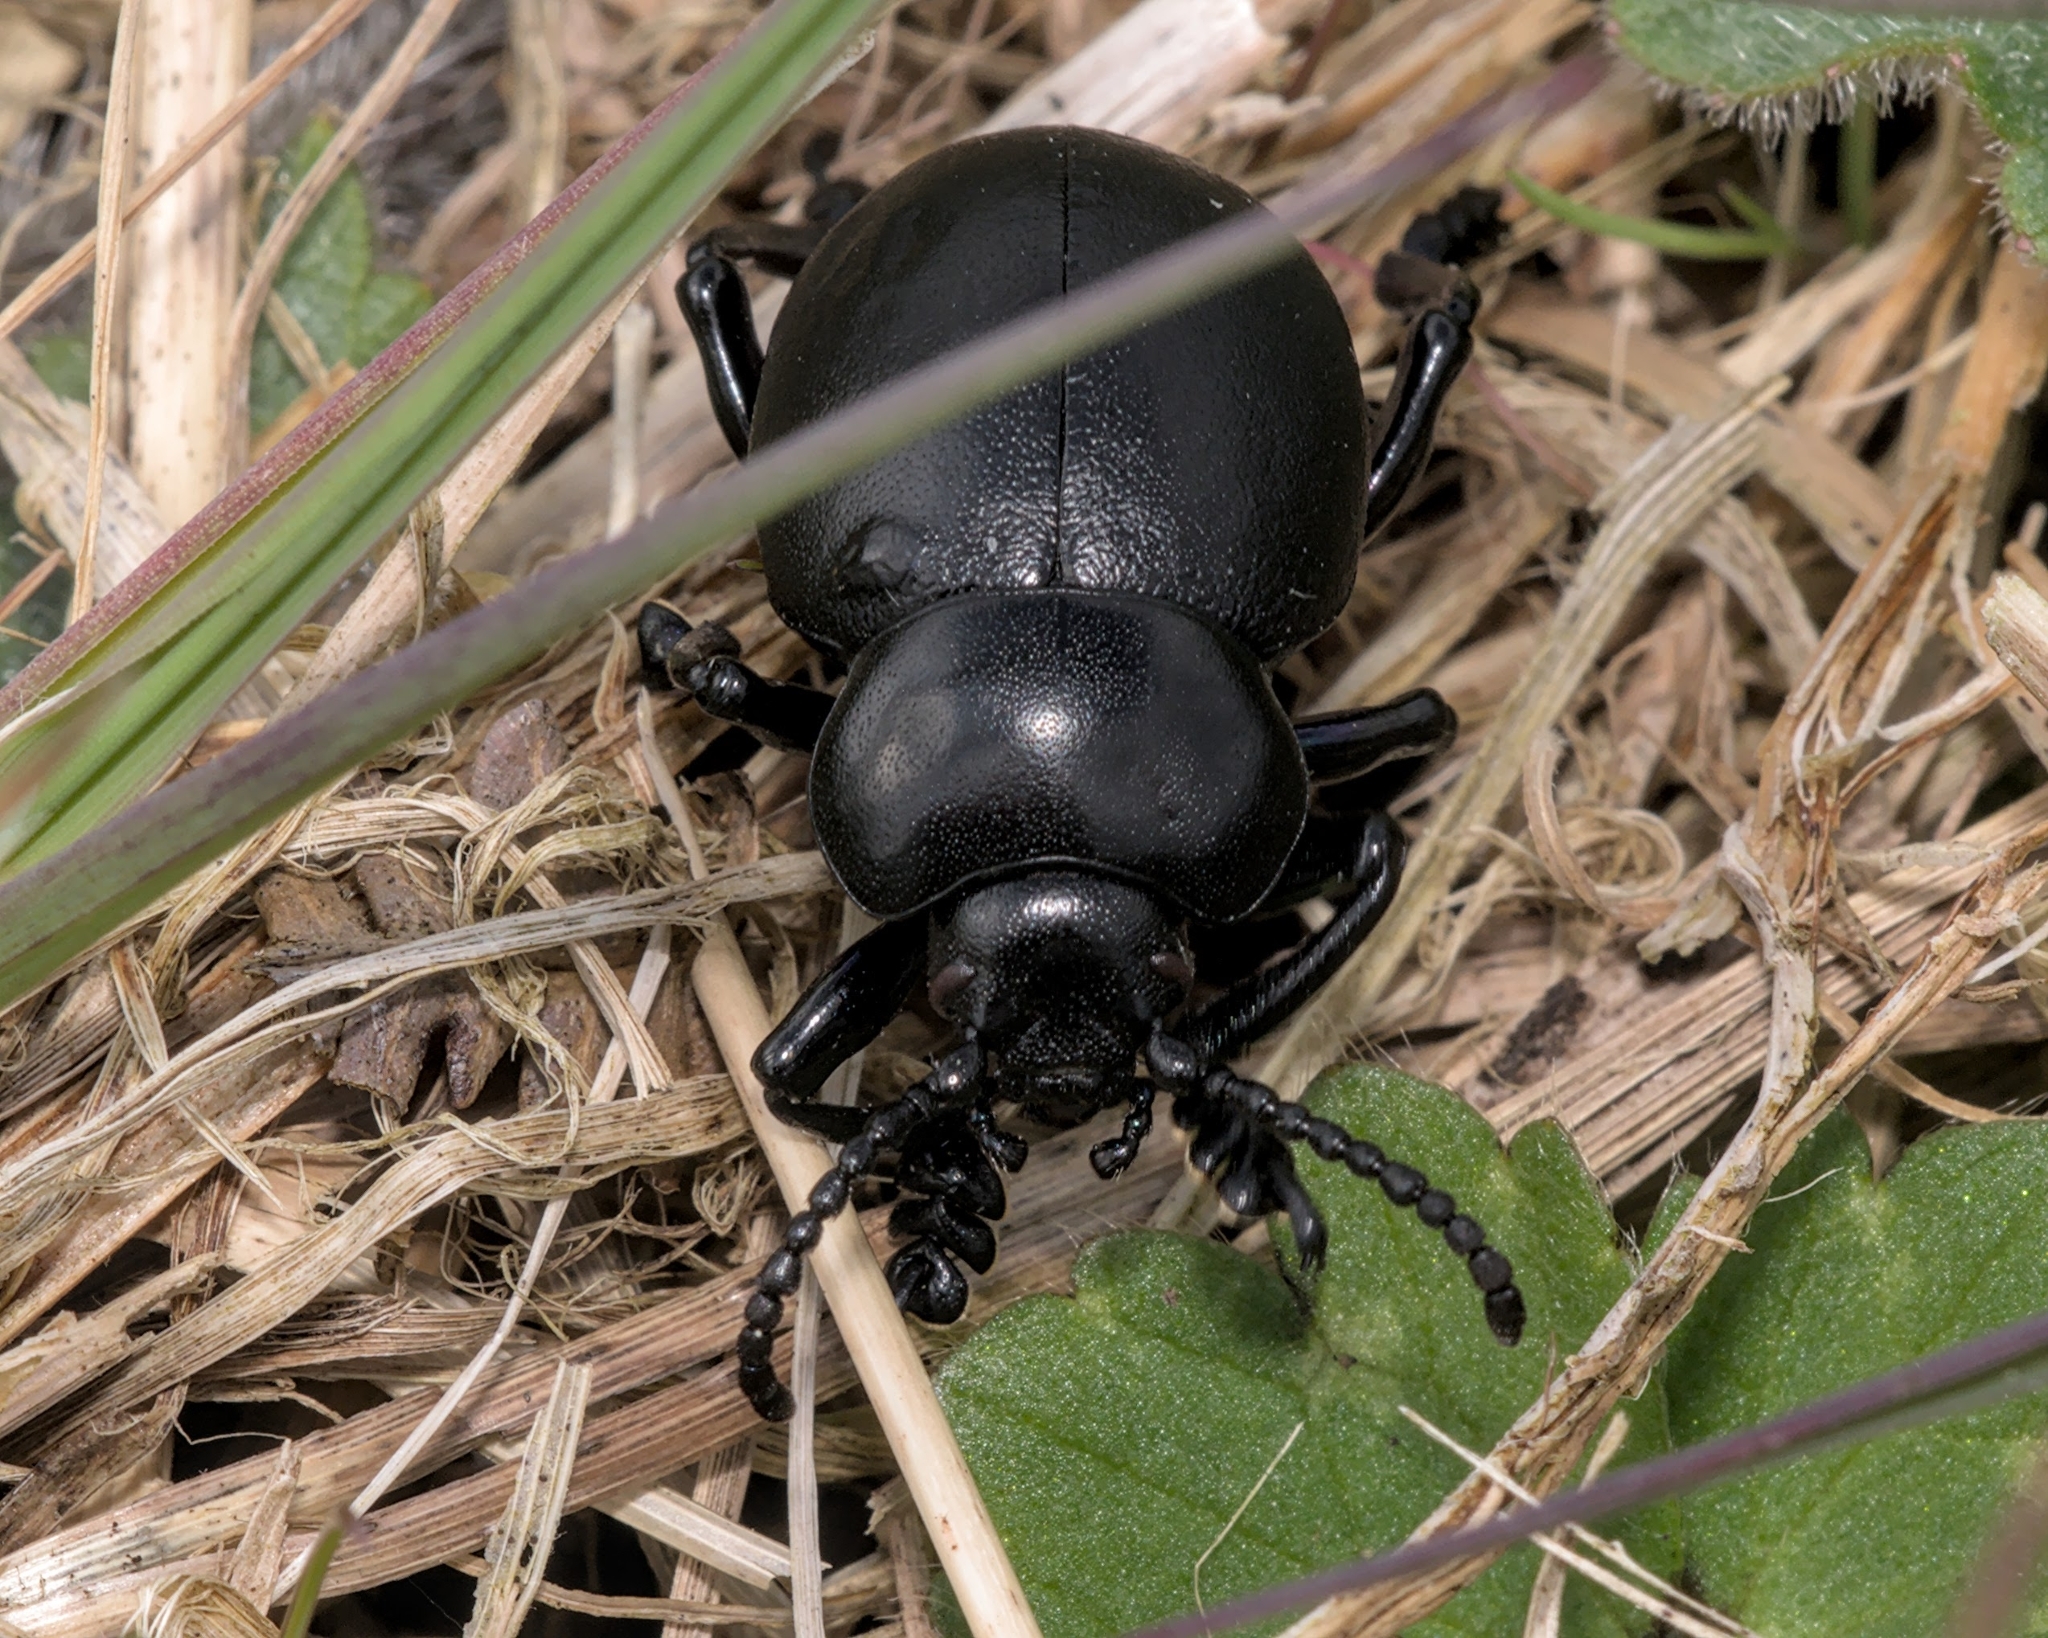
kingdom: Animalia
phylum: Arthropoda
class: Insecta
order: Coleoptera
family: Chrysomelidae
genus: Timarcha
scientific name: Timarcha tenebricosa
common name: Bloody-nosed beetle
